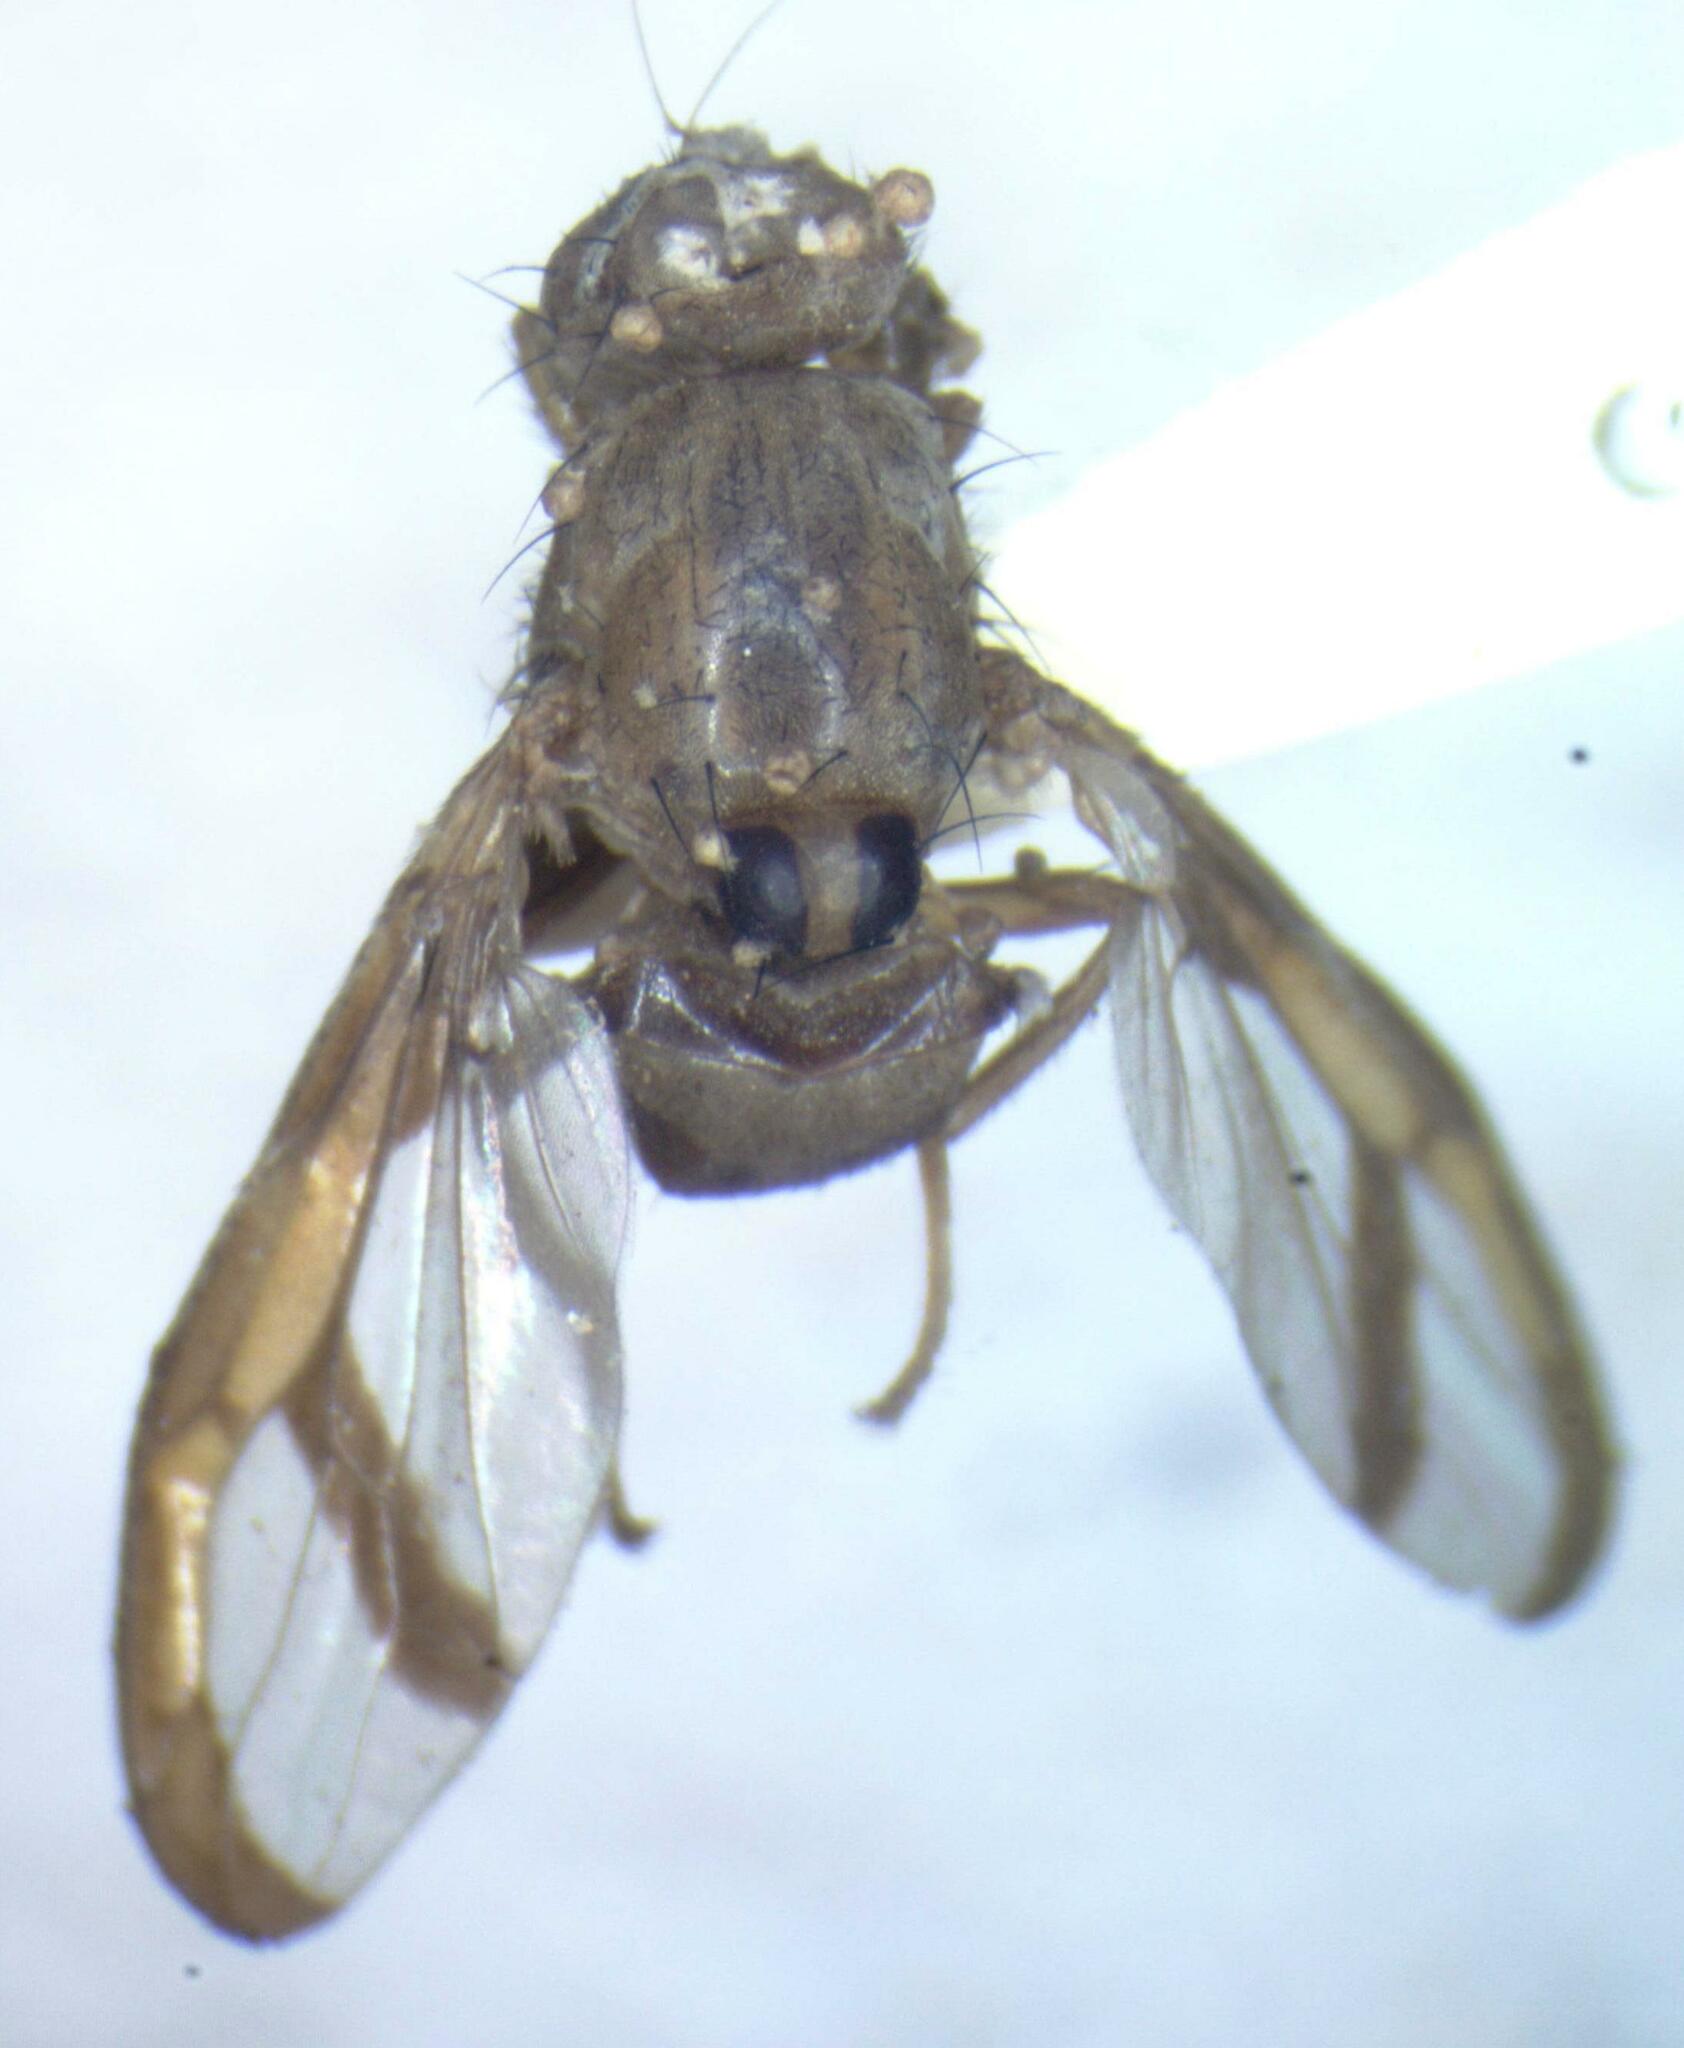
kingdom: Animalia
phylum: Arthropoda
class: Insecta
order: Diptera
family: Ulidiidae
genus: Xanthacrona
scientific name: Xanthacrona bipustulata
